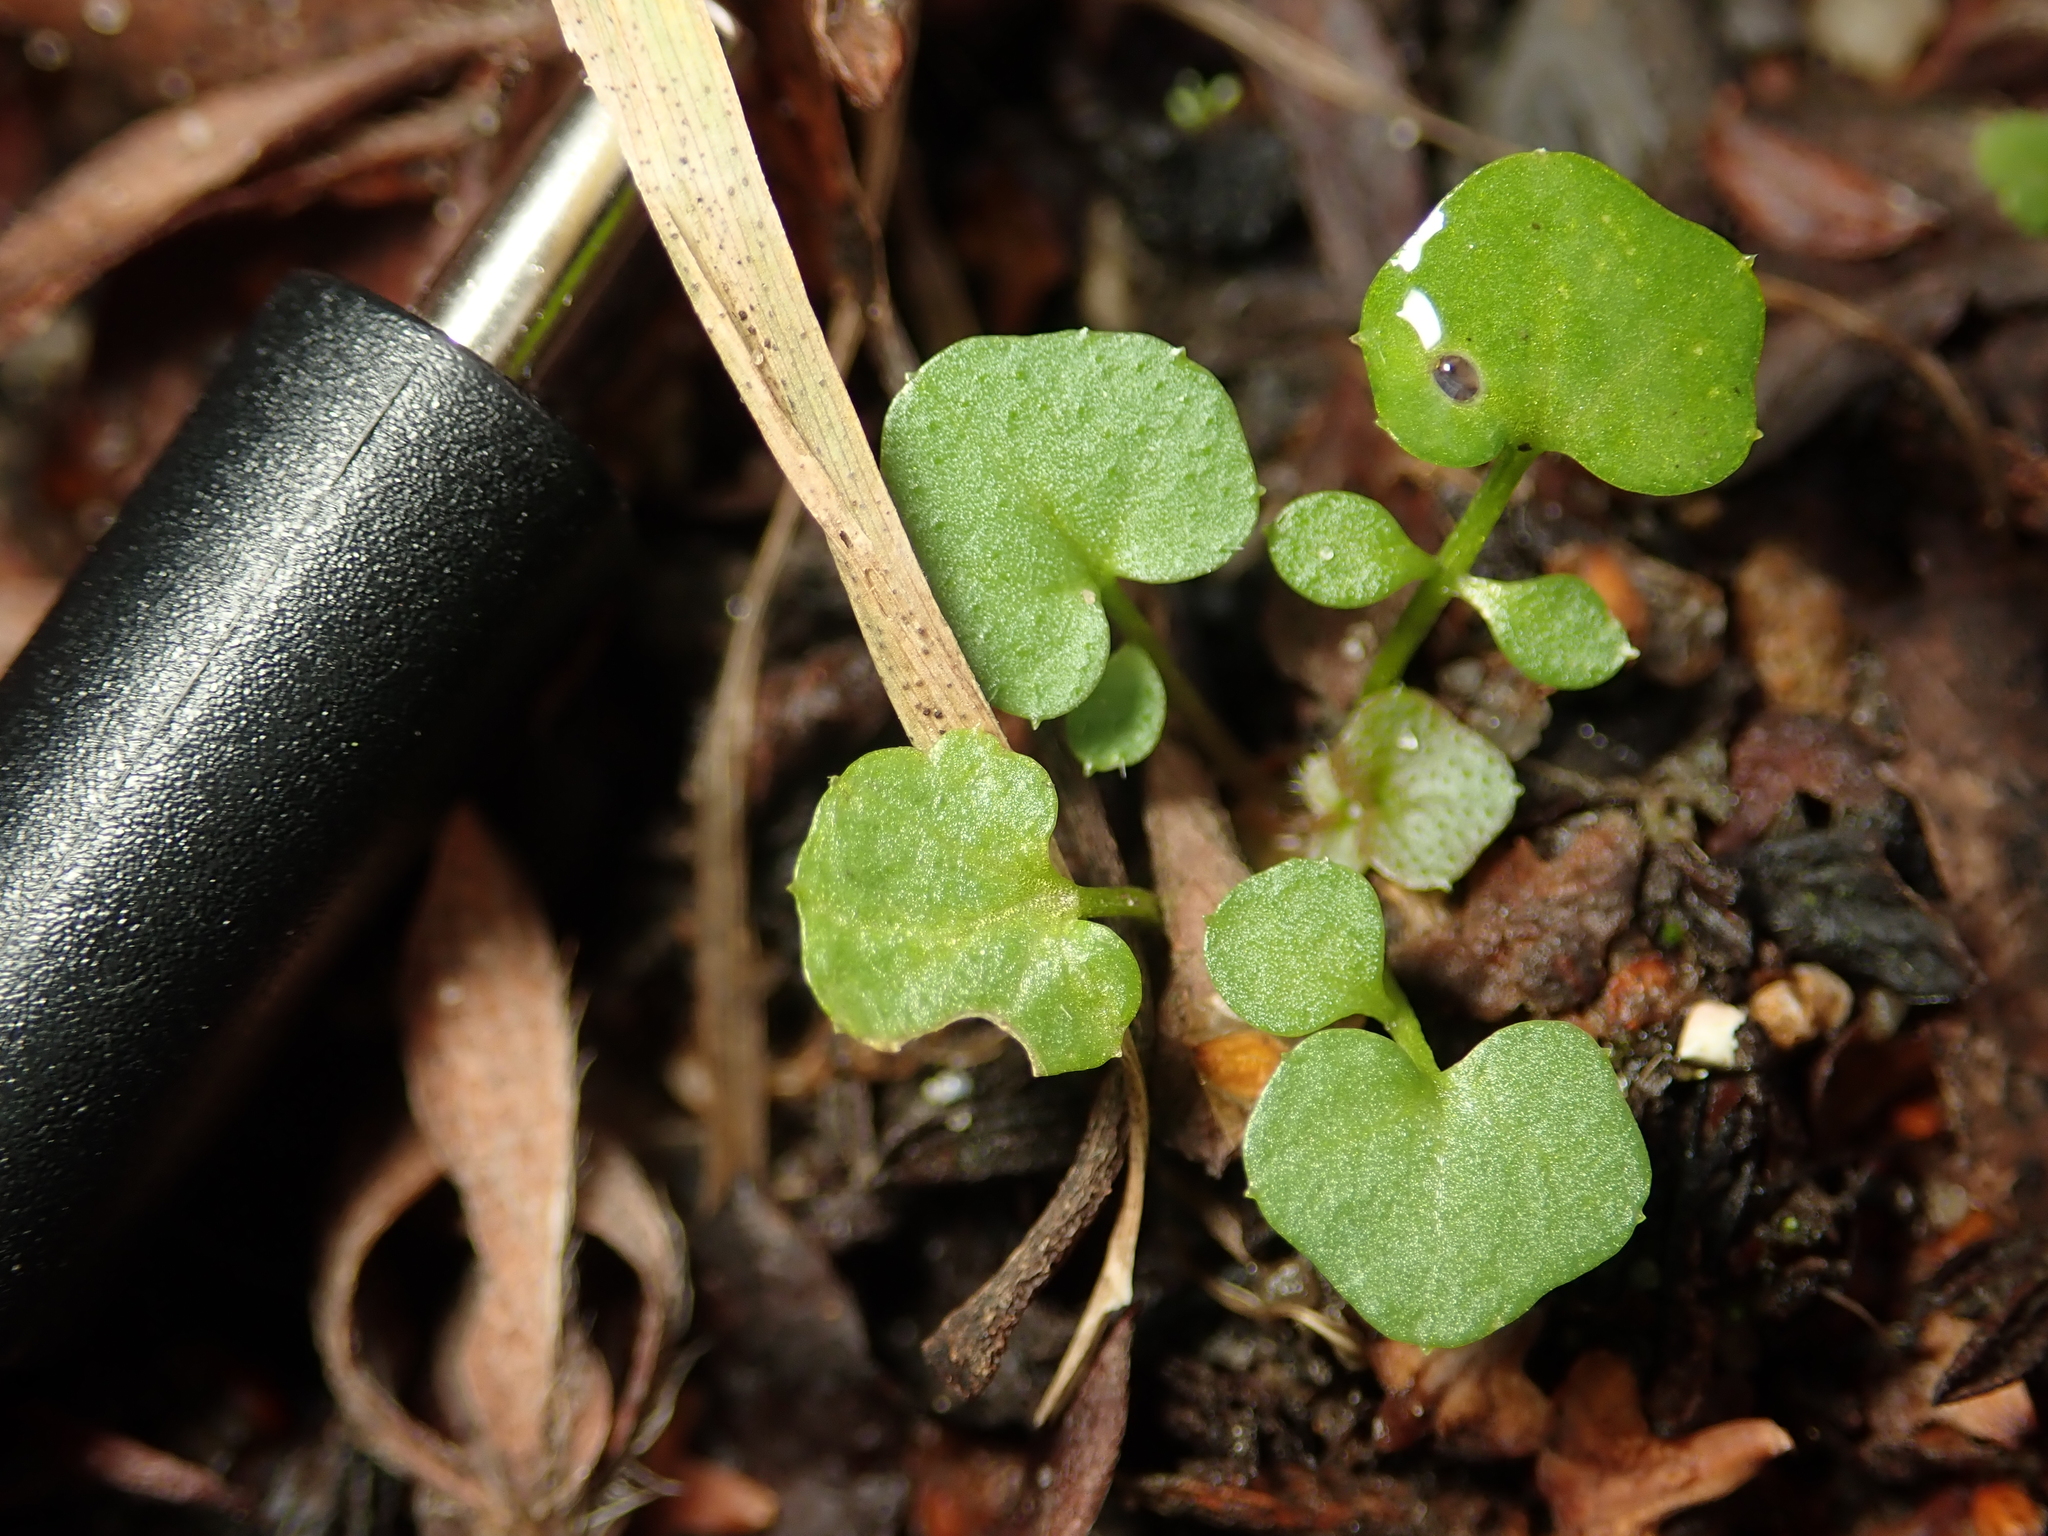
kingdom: Plantae
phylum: Tracheophyta
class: Magnoliopsida
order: Brassicales
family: Brassicaceae
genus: Cardamine
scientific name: Cardamine hirsuta
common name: Hairy bittercress
